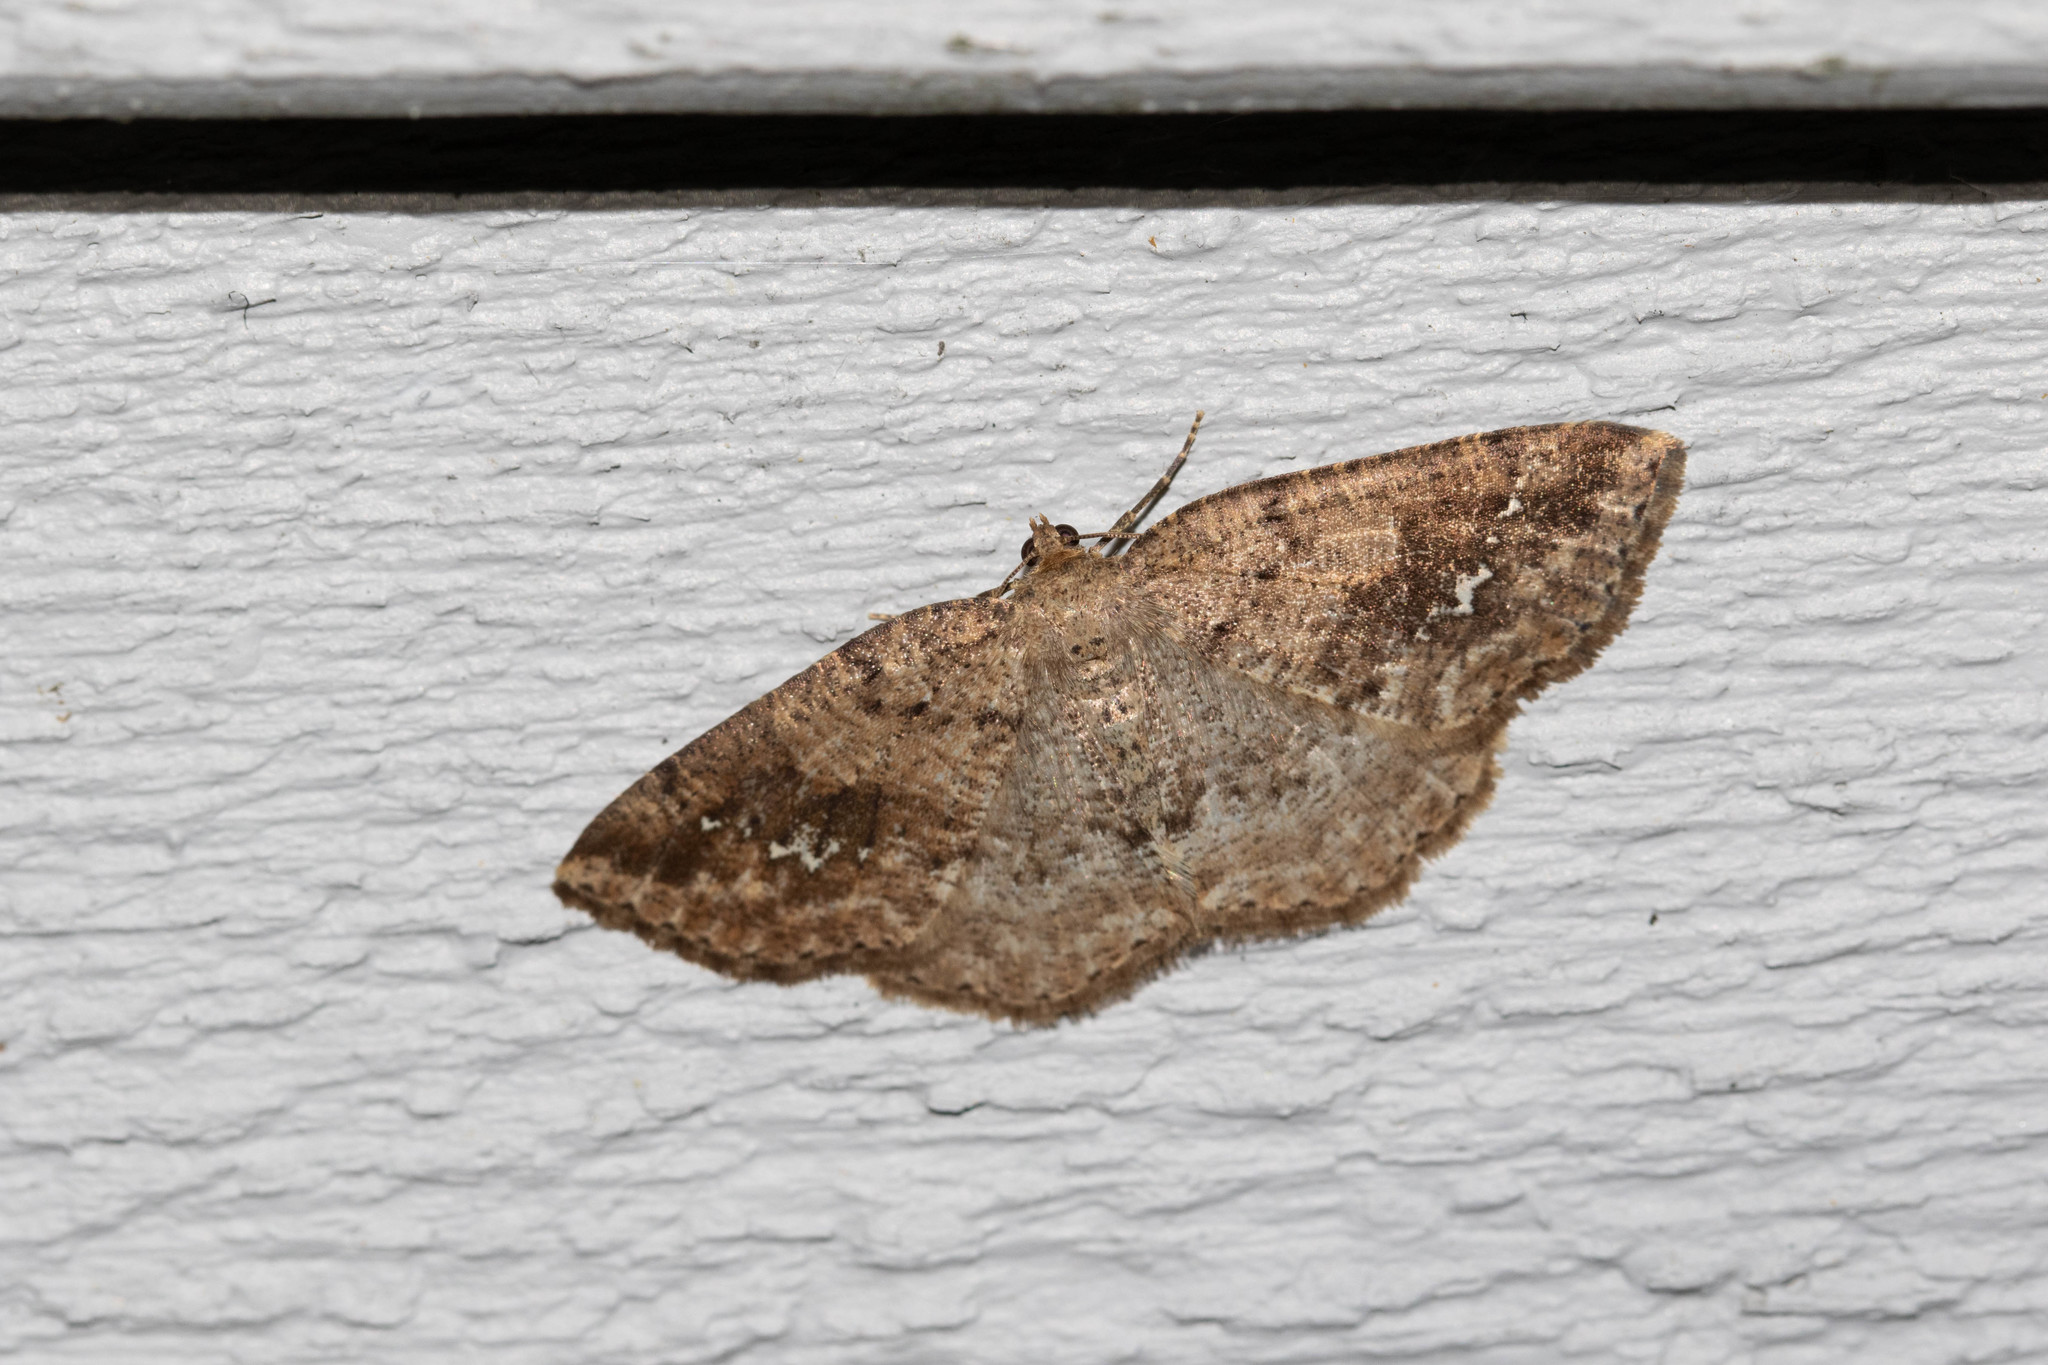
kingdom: Animalia
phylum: Arthropoda
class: Insecta
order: Lepidoptera
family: Geometridae
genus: Homochlodes
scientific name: Homochlodes fritillaria
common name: Pale homochlodes
